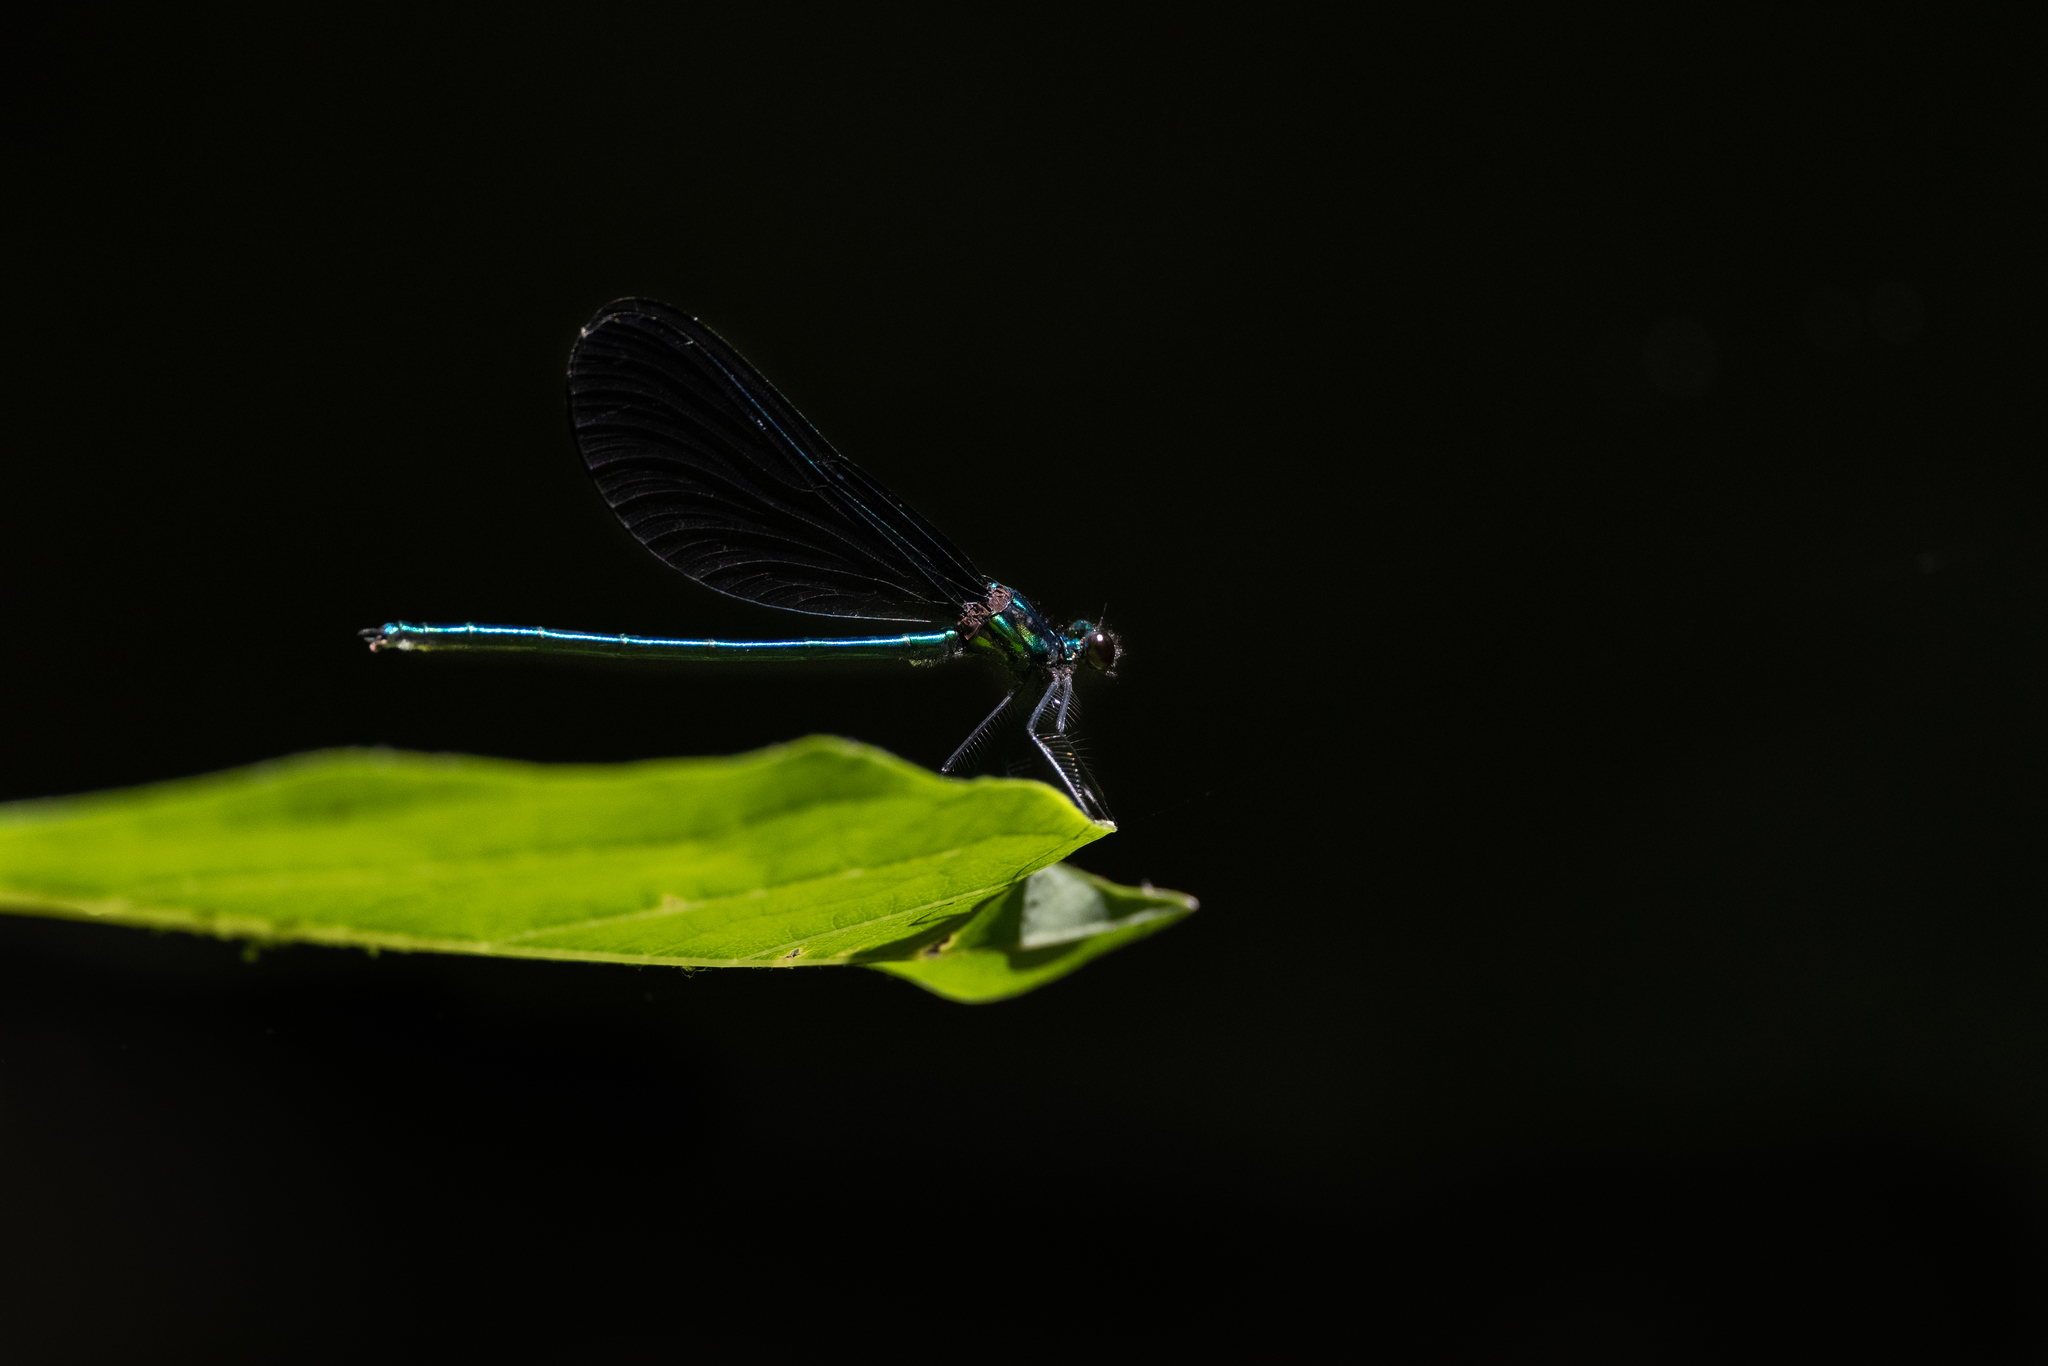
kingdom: Animalia
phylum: Arthropoda
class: Insecta
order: Odonata
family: Calopterygidae
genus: Calopteryx
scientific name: Calopteryx maculata
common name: Ebony jewelwing
